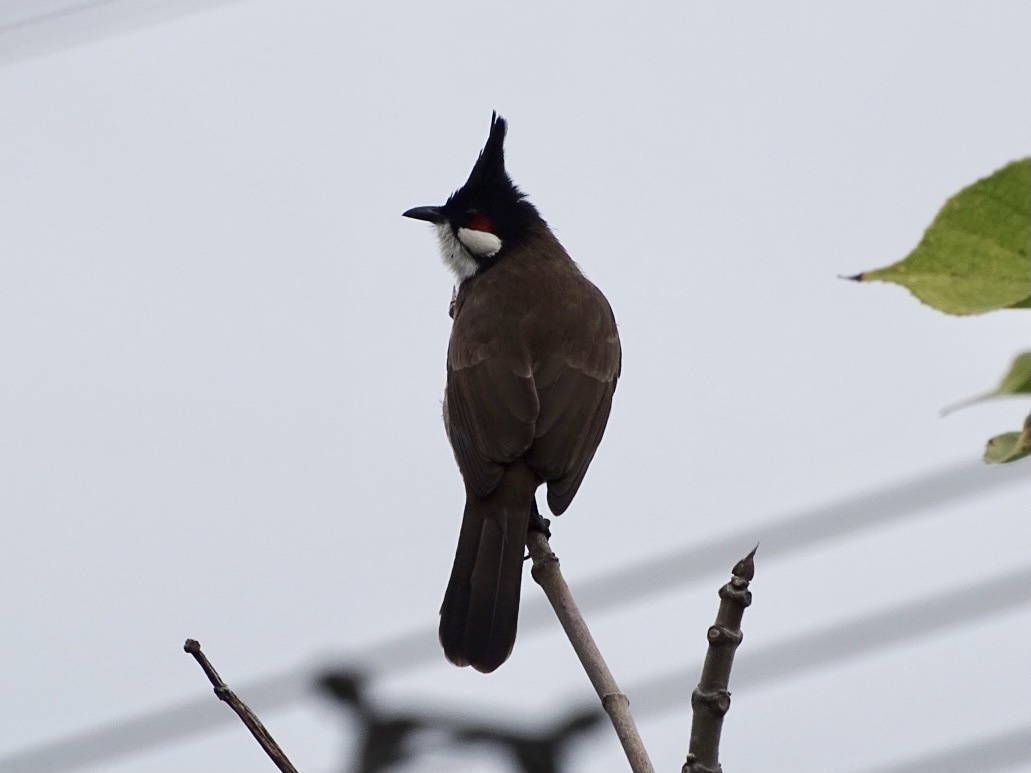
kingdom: Animalia
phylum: Chordata
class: Aves
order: Passeriformes
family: Pycnonotidae
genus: Pycnonotus
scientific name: Pycnonotus jocosus
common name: Red-whiskered bulbul
